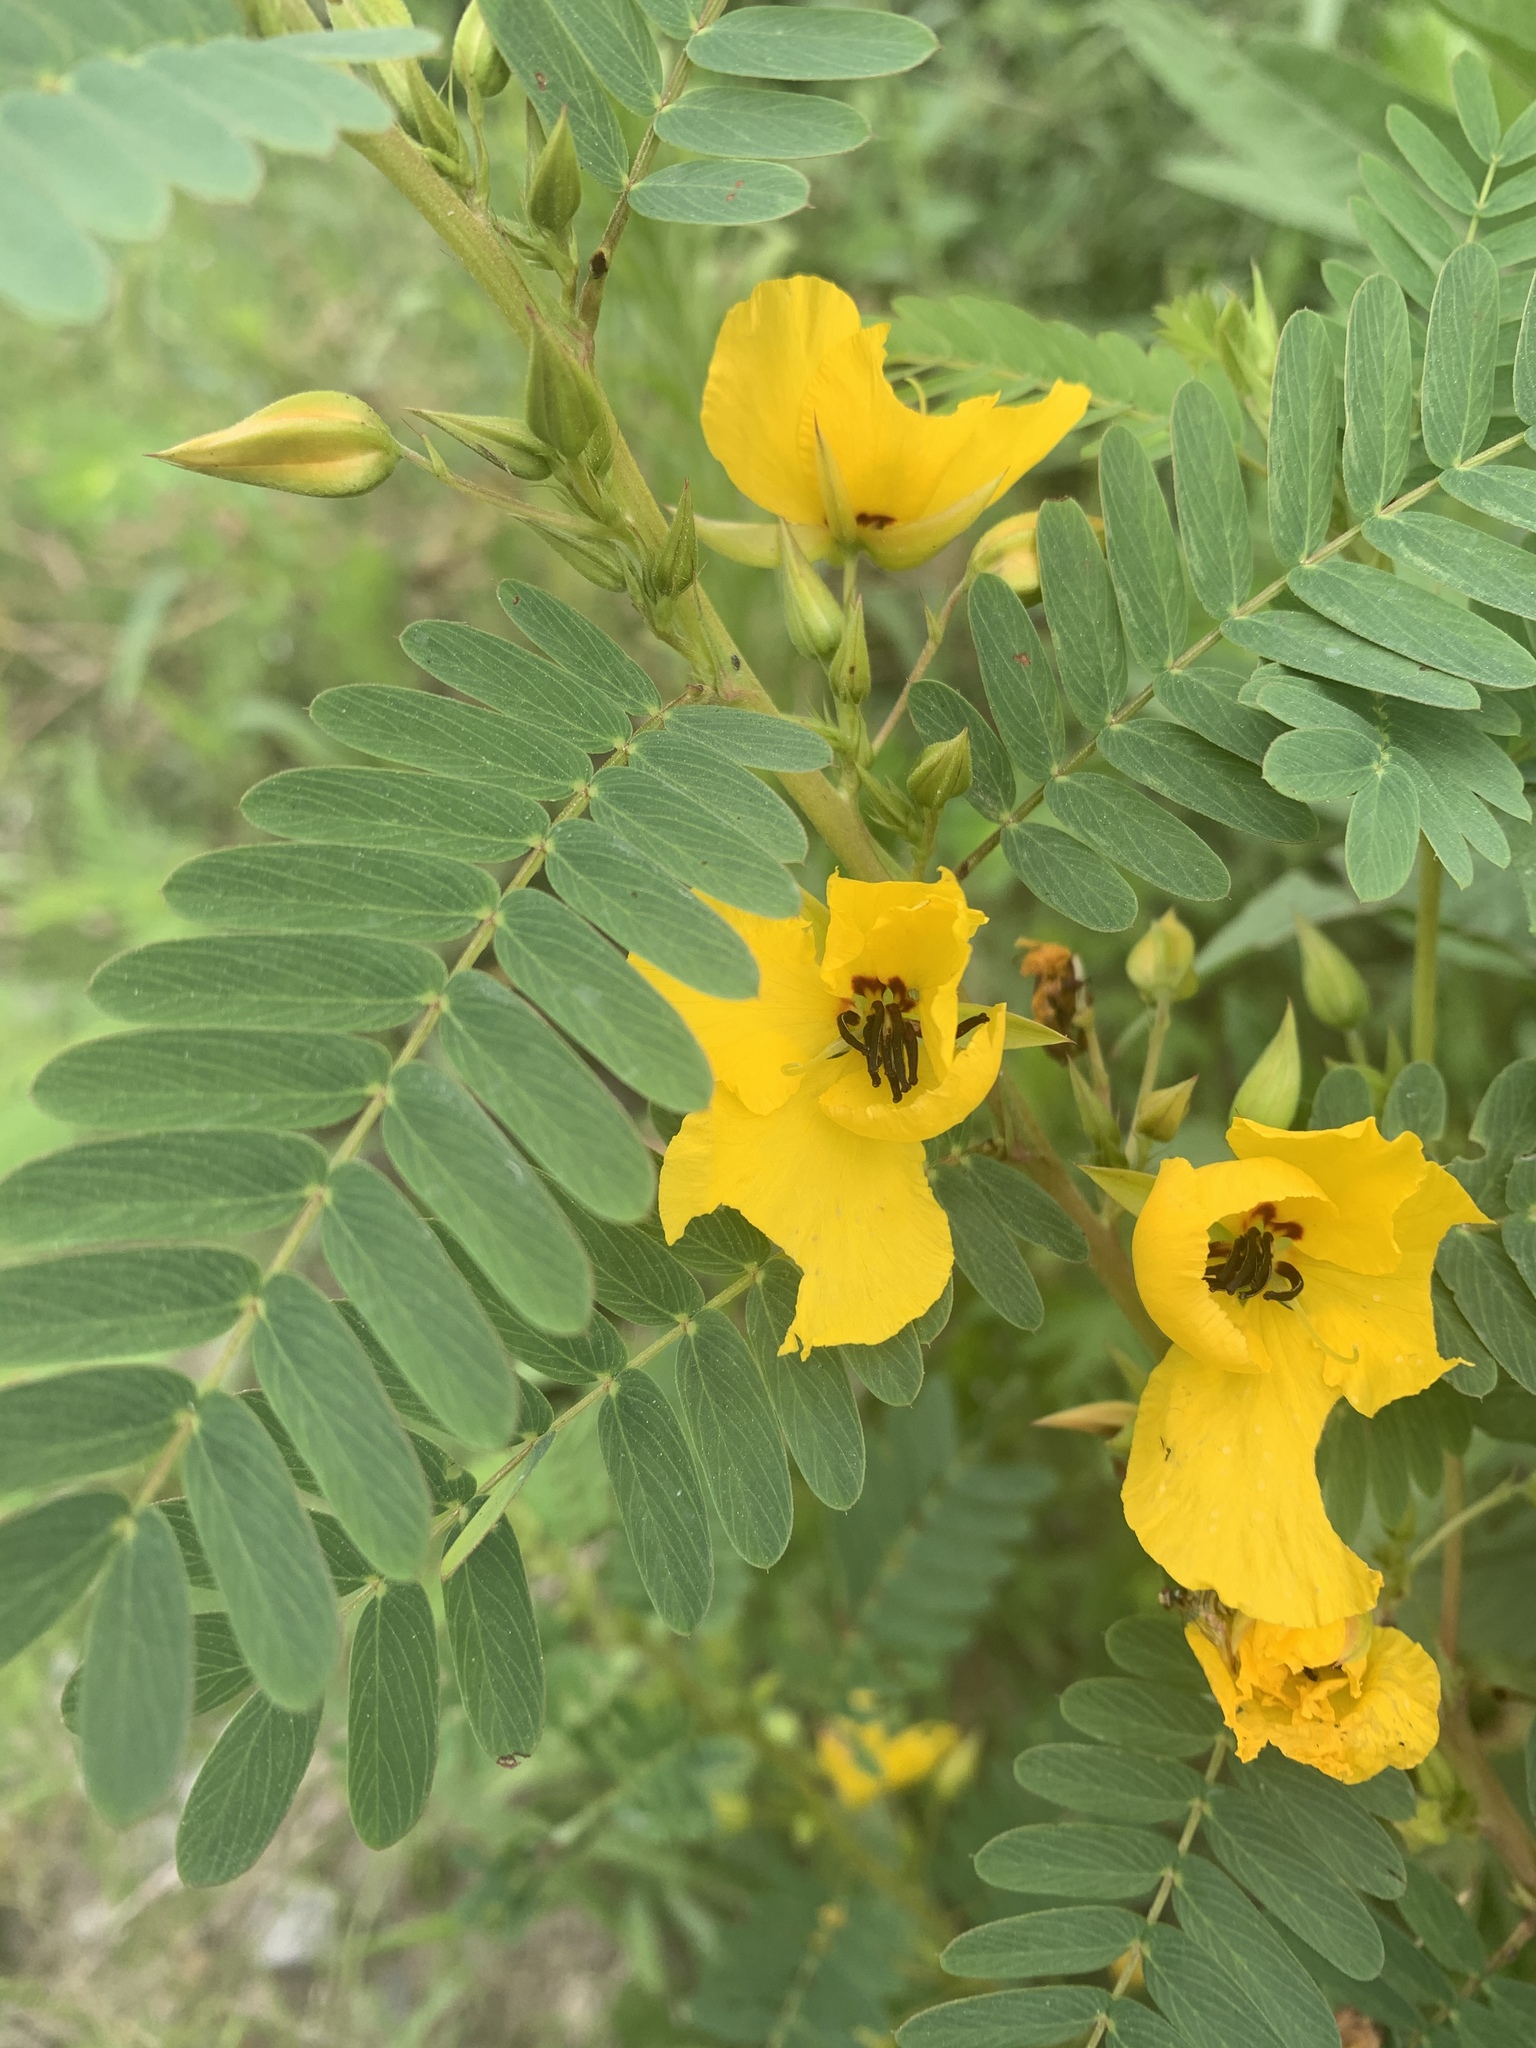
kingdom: Plantae
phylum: Tracheophyta
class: Magnoliopsida
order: Fabales
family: Fabaceae
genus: Chamaecrista
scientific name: Chamaecrista fasciculata
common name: Golden cassia
